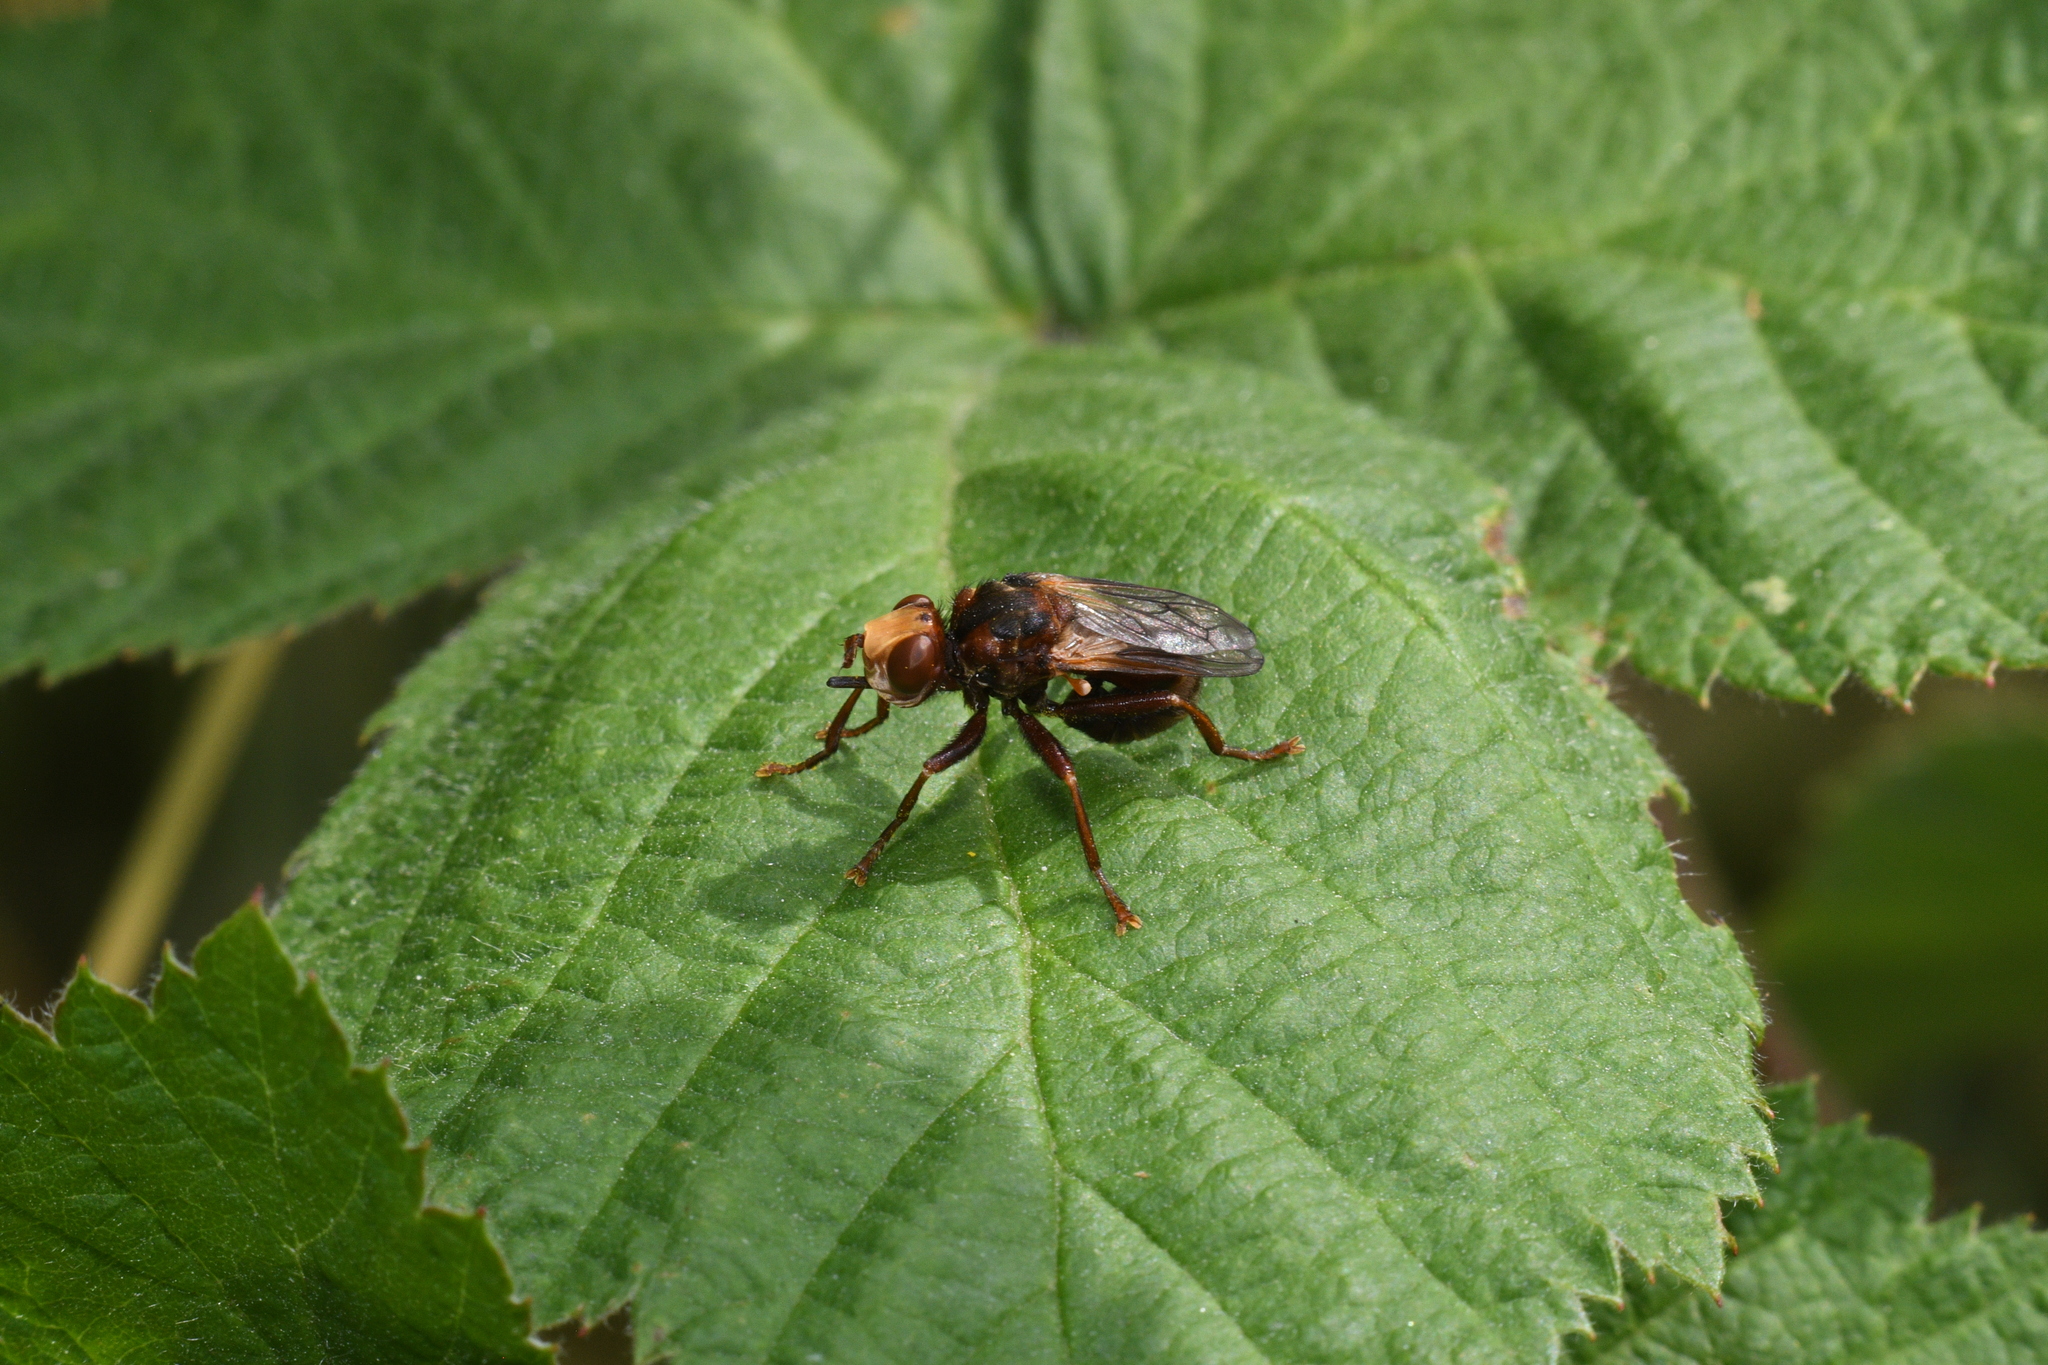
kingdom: Animalia
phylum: Arthropoda
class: Insecta
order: Diptera
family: Conopidae
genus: Sicus
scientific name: Sicus ferrugineus
